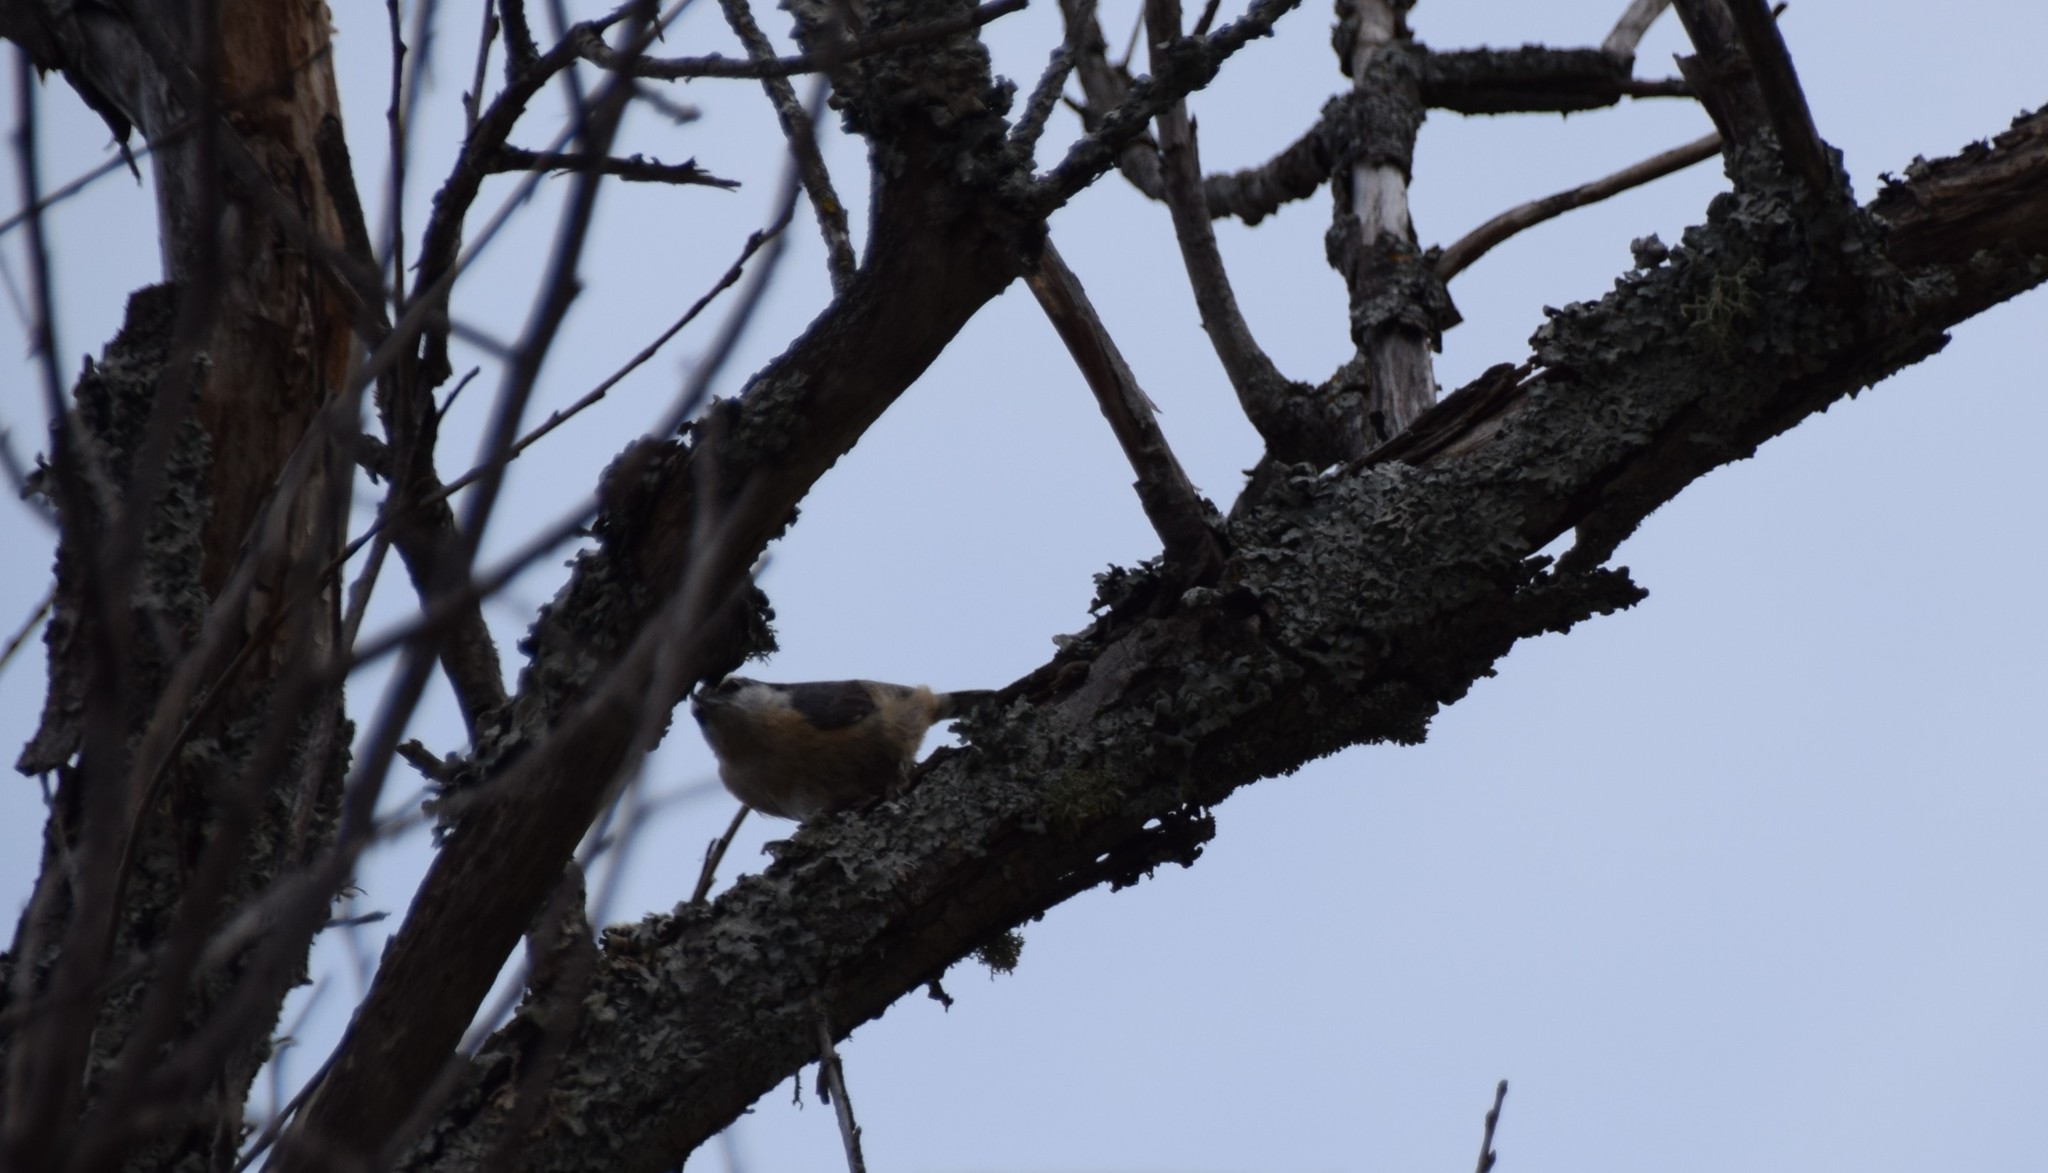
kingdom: Animalia
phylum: Chordata
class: Aves
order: Passeriformes
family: Sittidae
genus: Sitta
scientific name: Sitta canadensis
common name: Red-breasted nuthatch
